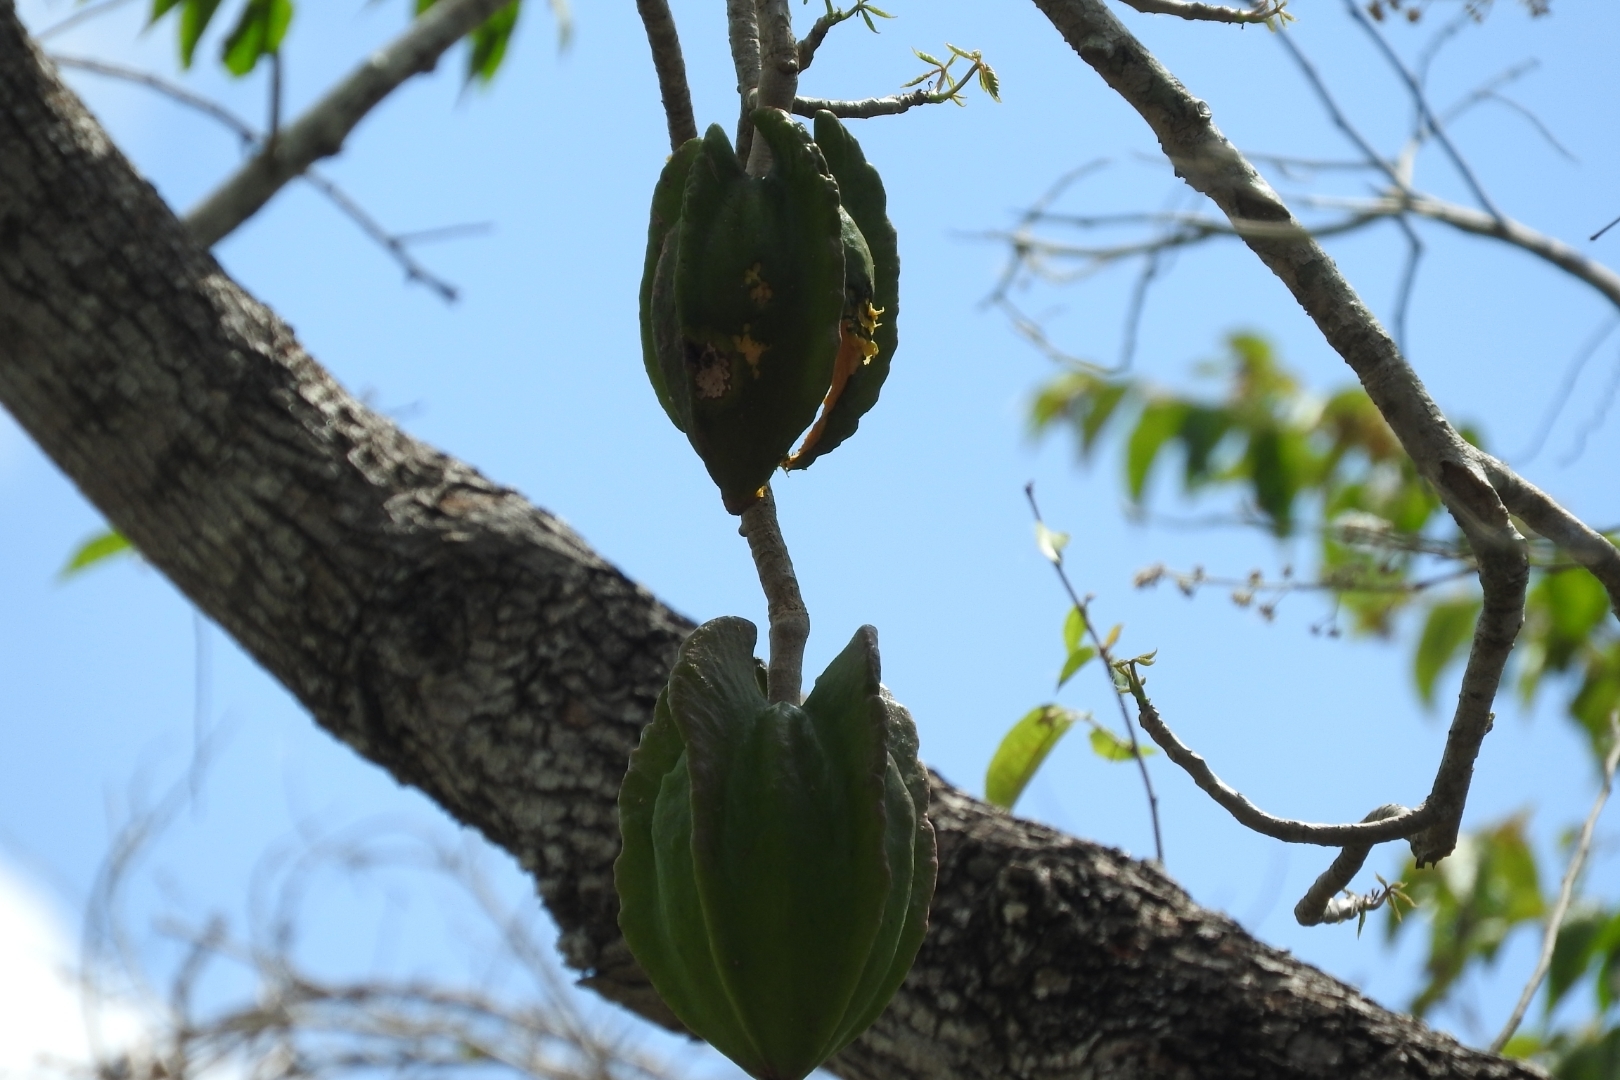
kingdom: Plantae
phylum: Tracheophyta
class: Magnoliopsida
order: Brassicales
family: Caricaceae
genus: Jacaratia
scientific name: Jacaratia mexicana
